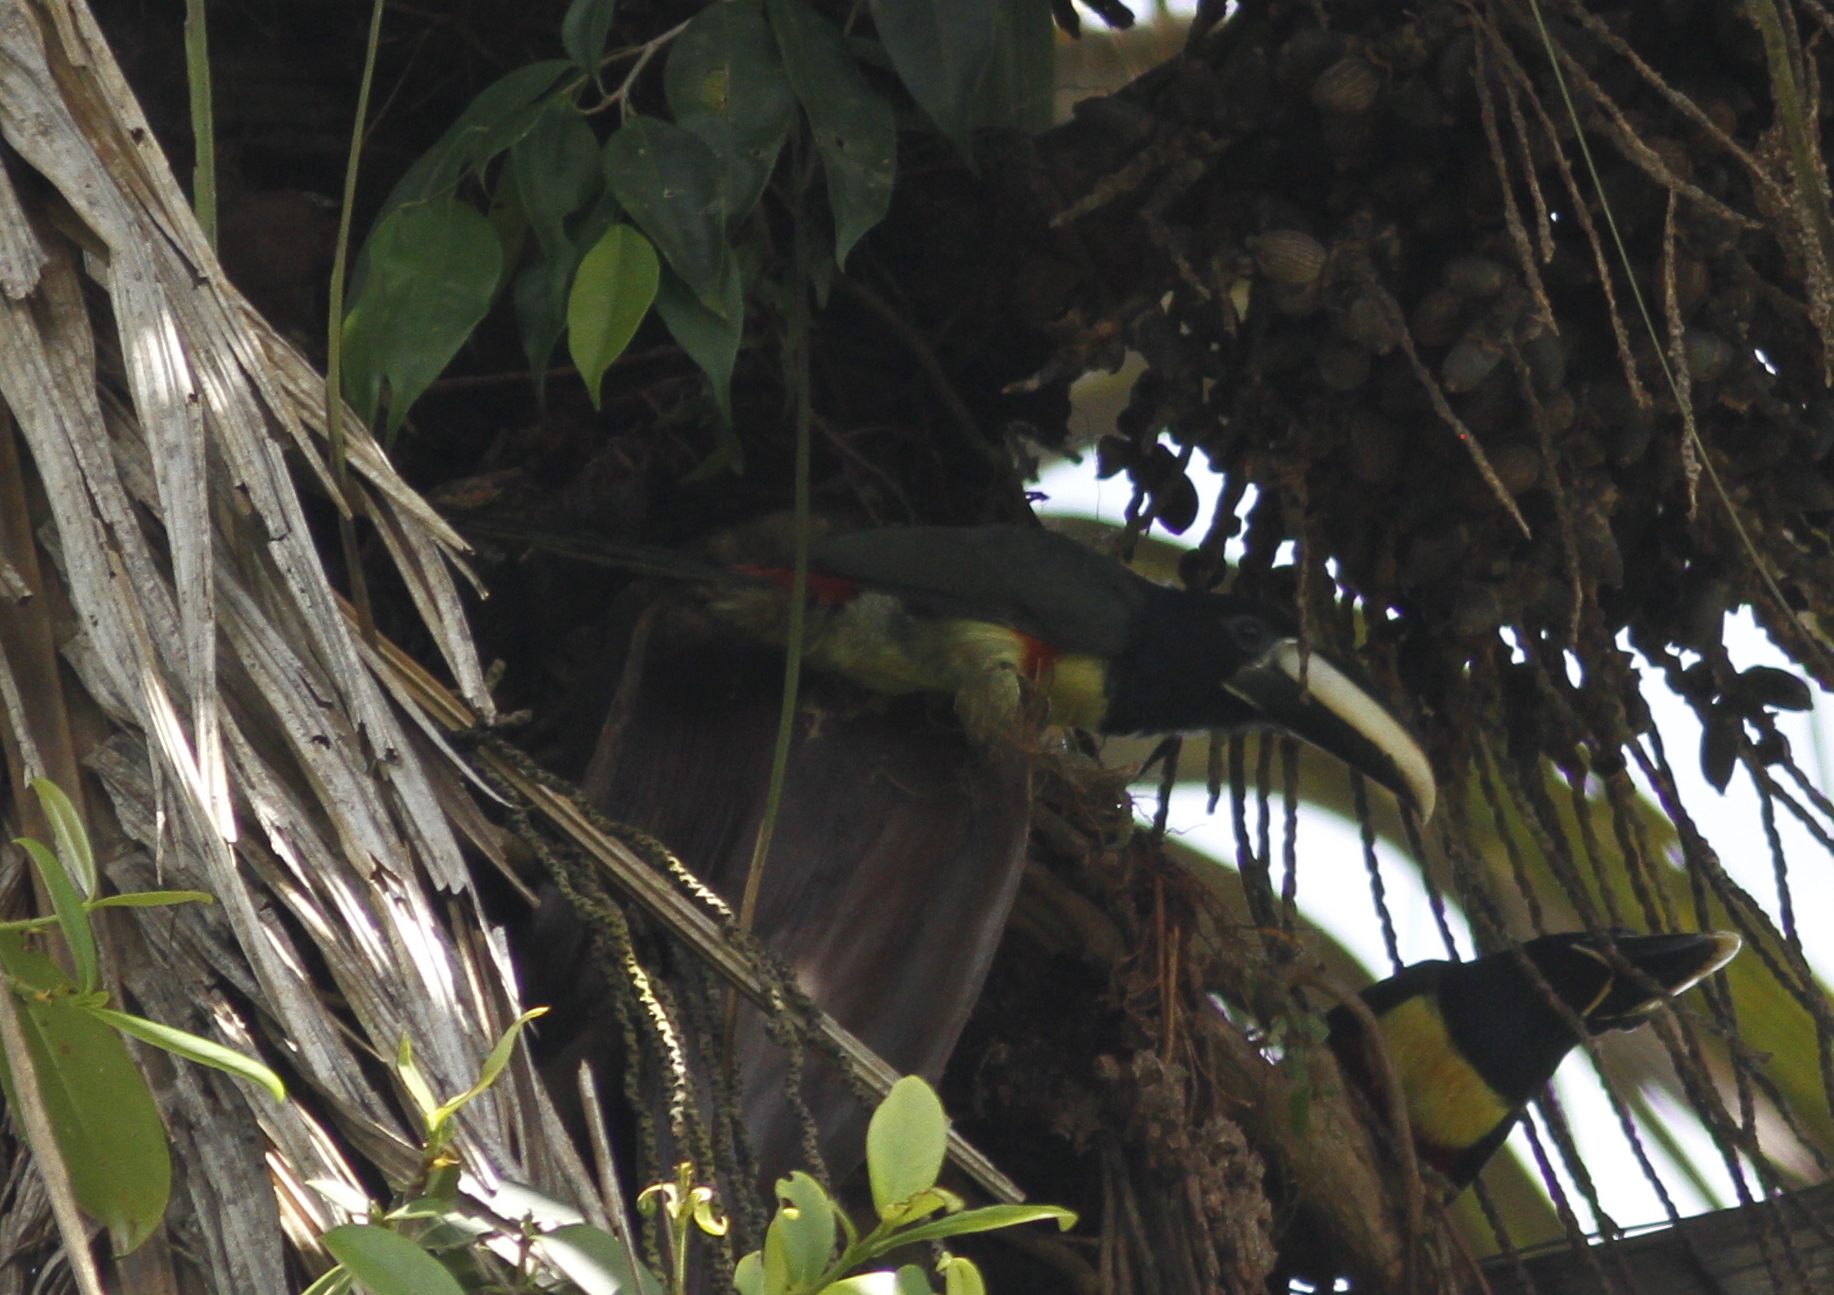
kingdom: Animalia
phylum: Chordata
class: Aves
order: Piciformes
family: Ramphastidae
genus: Pteroglossus
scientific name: Pteroglossus aracari
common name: Black-necked aracari
